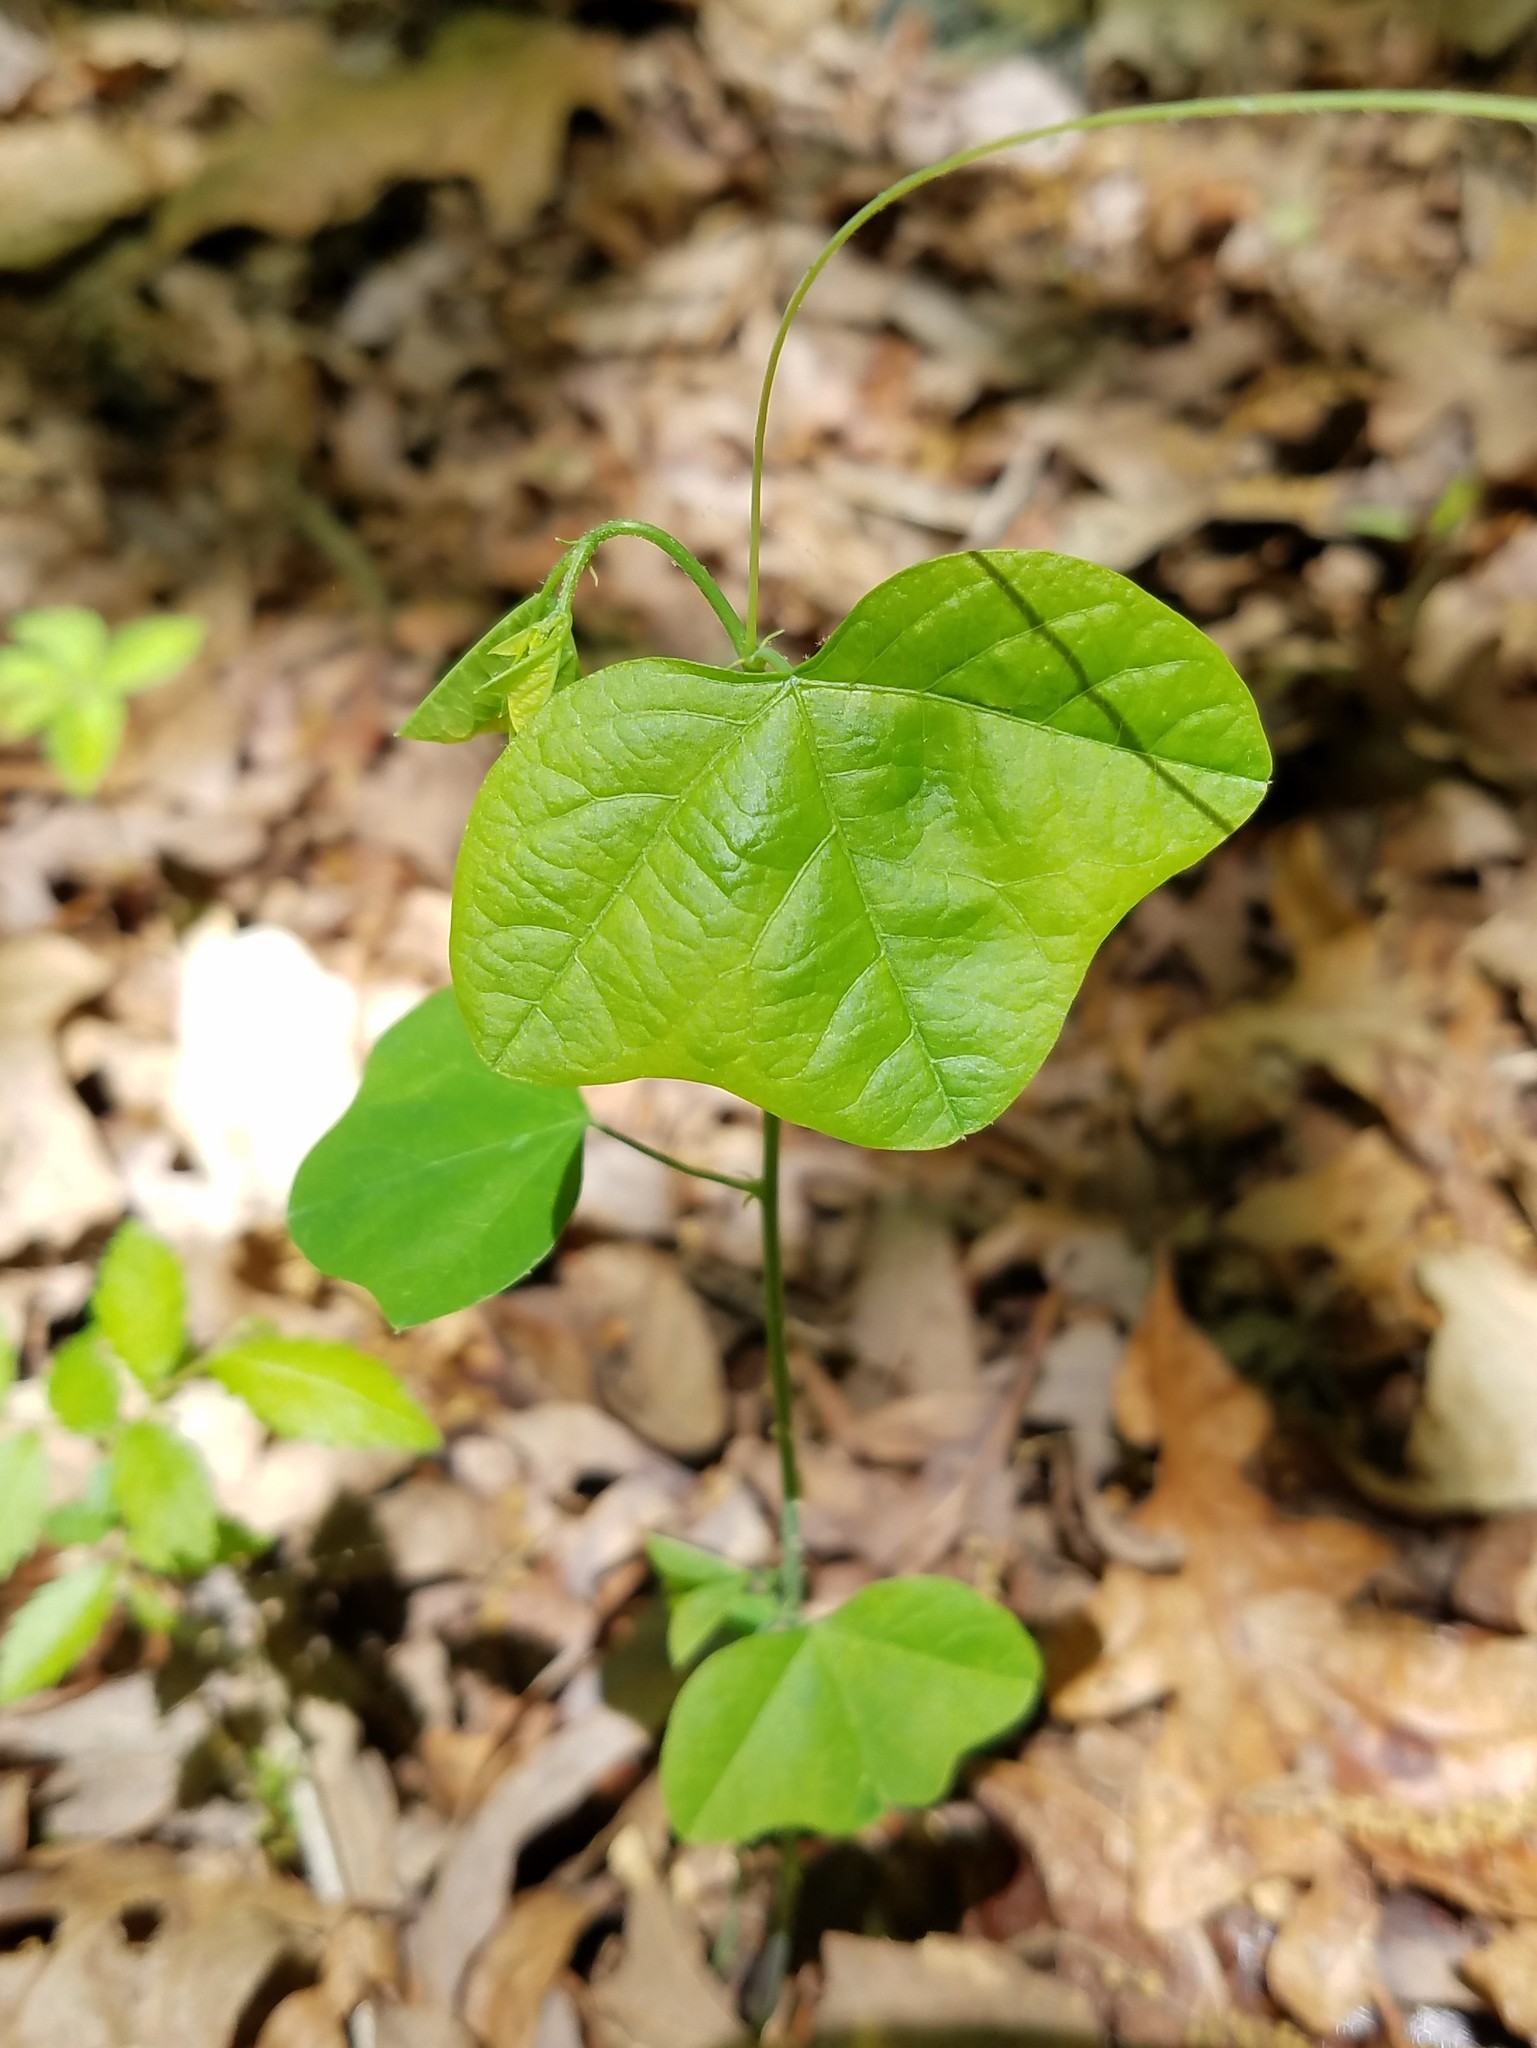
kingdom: Plantae
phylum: Tracheophyta
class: Magnoliopsida
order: Malpighiales
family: Passifloraceae
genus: Passiflora
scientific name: Passiflora lutea
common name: Yellow passionflower
